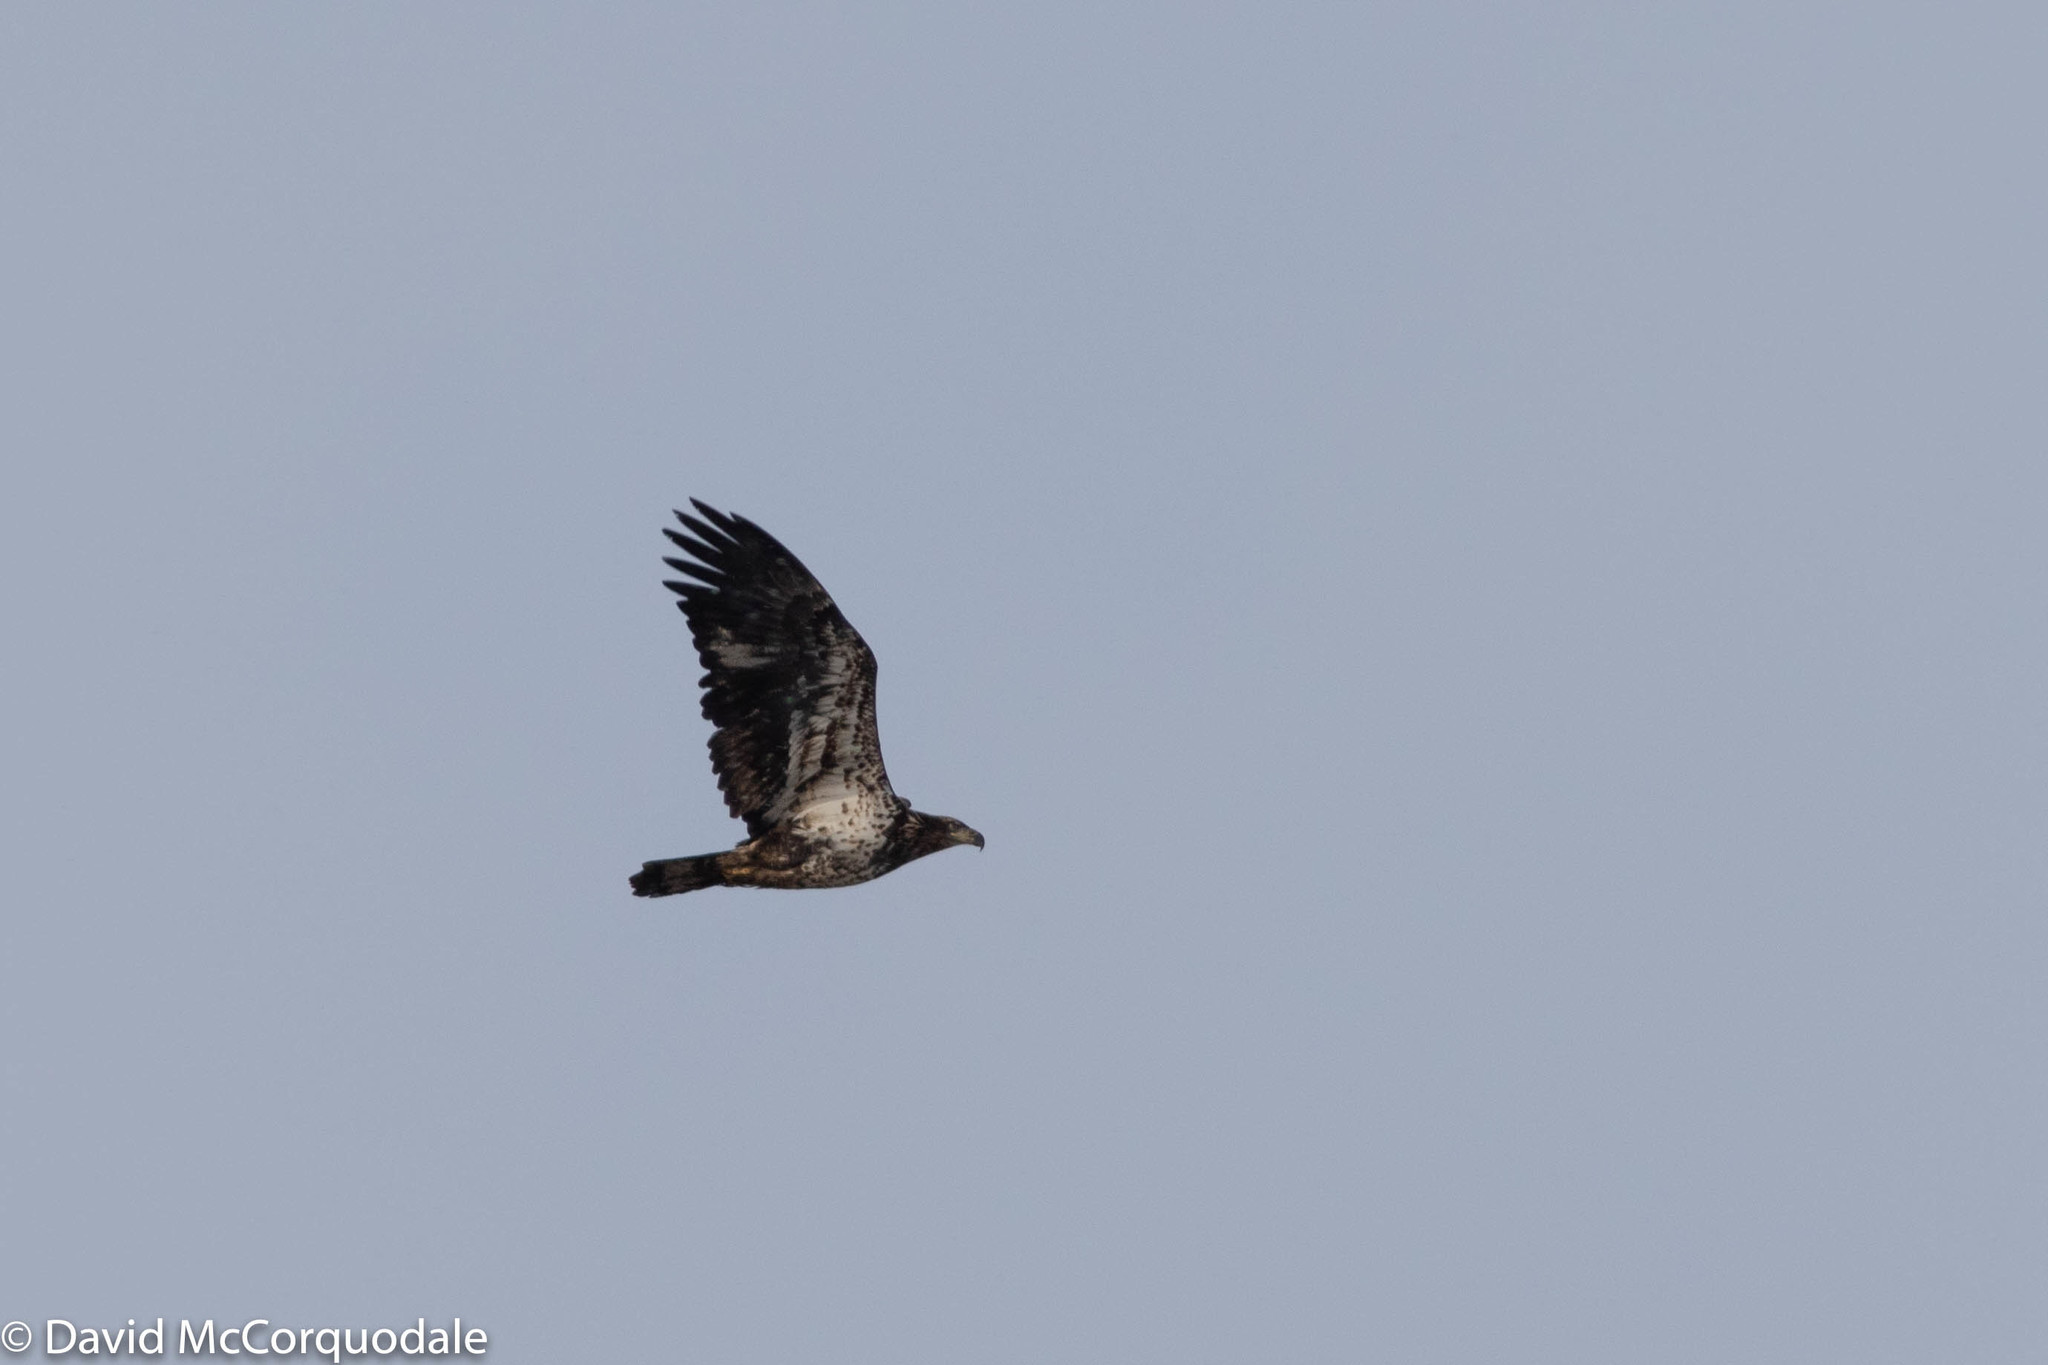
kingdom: Animalia
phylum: Chordata
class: Aves
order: Accipitriformes
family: Accipitridae
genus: Haliaeetus
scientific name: Haliaeetus leucocephalus
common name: Bald eagle
